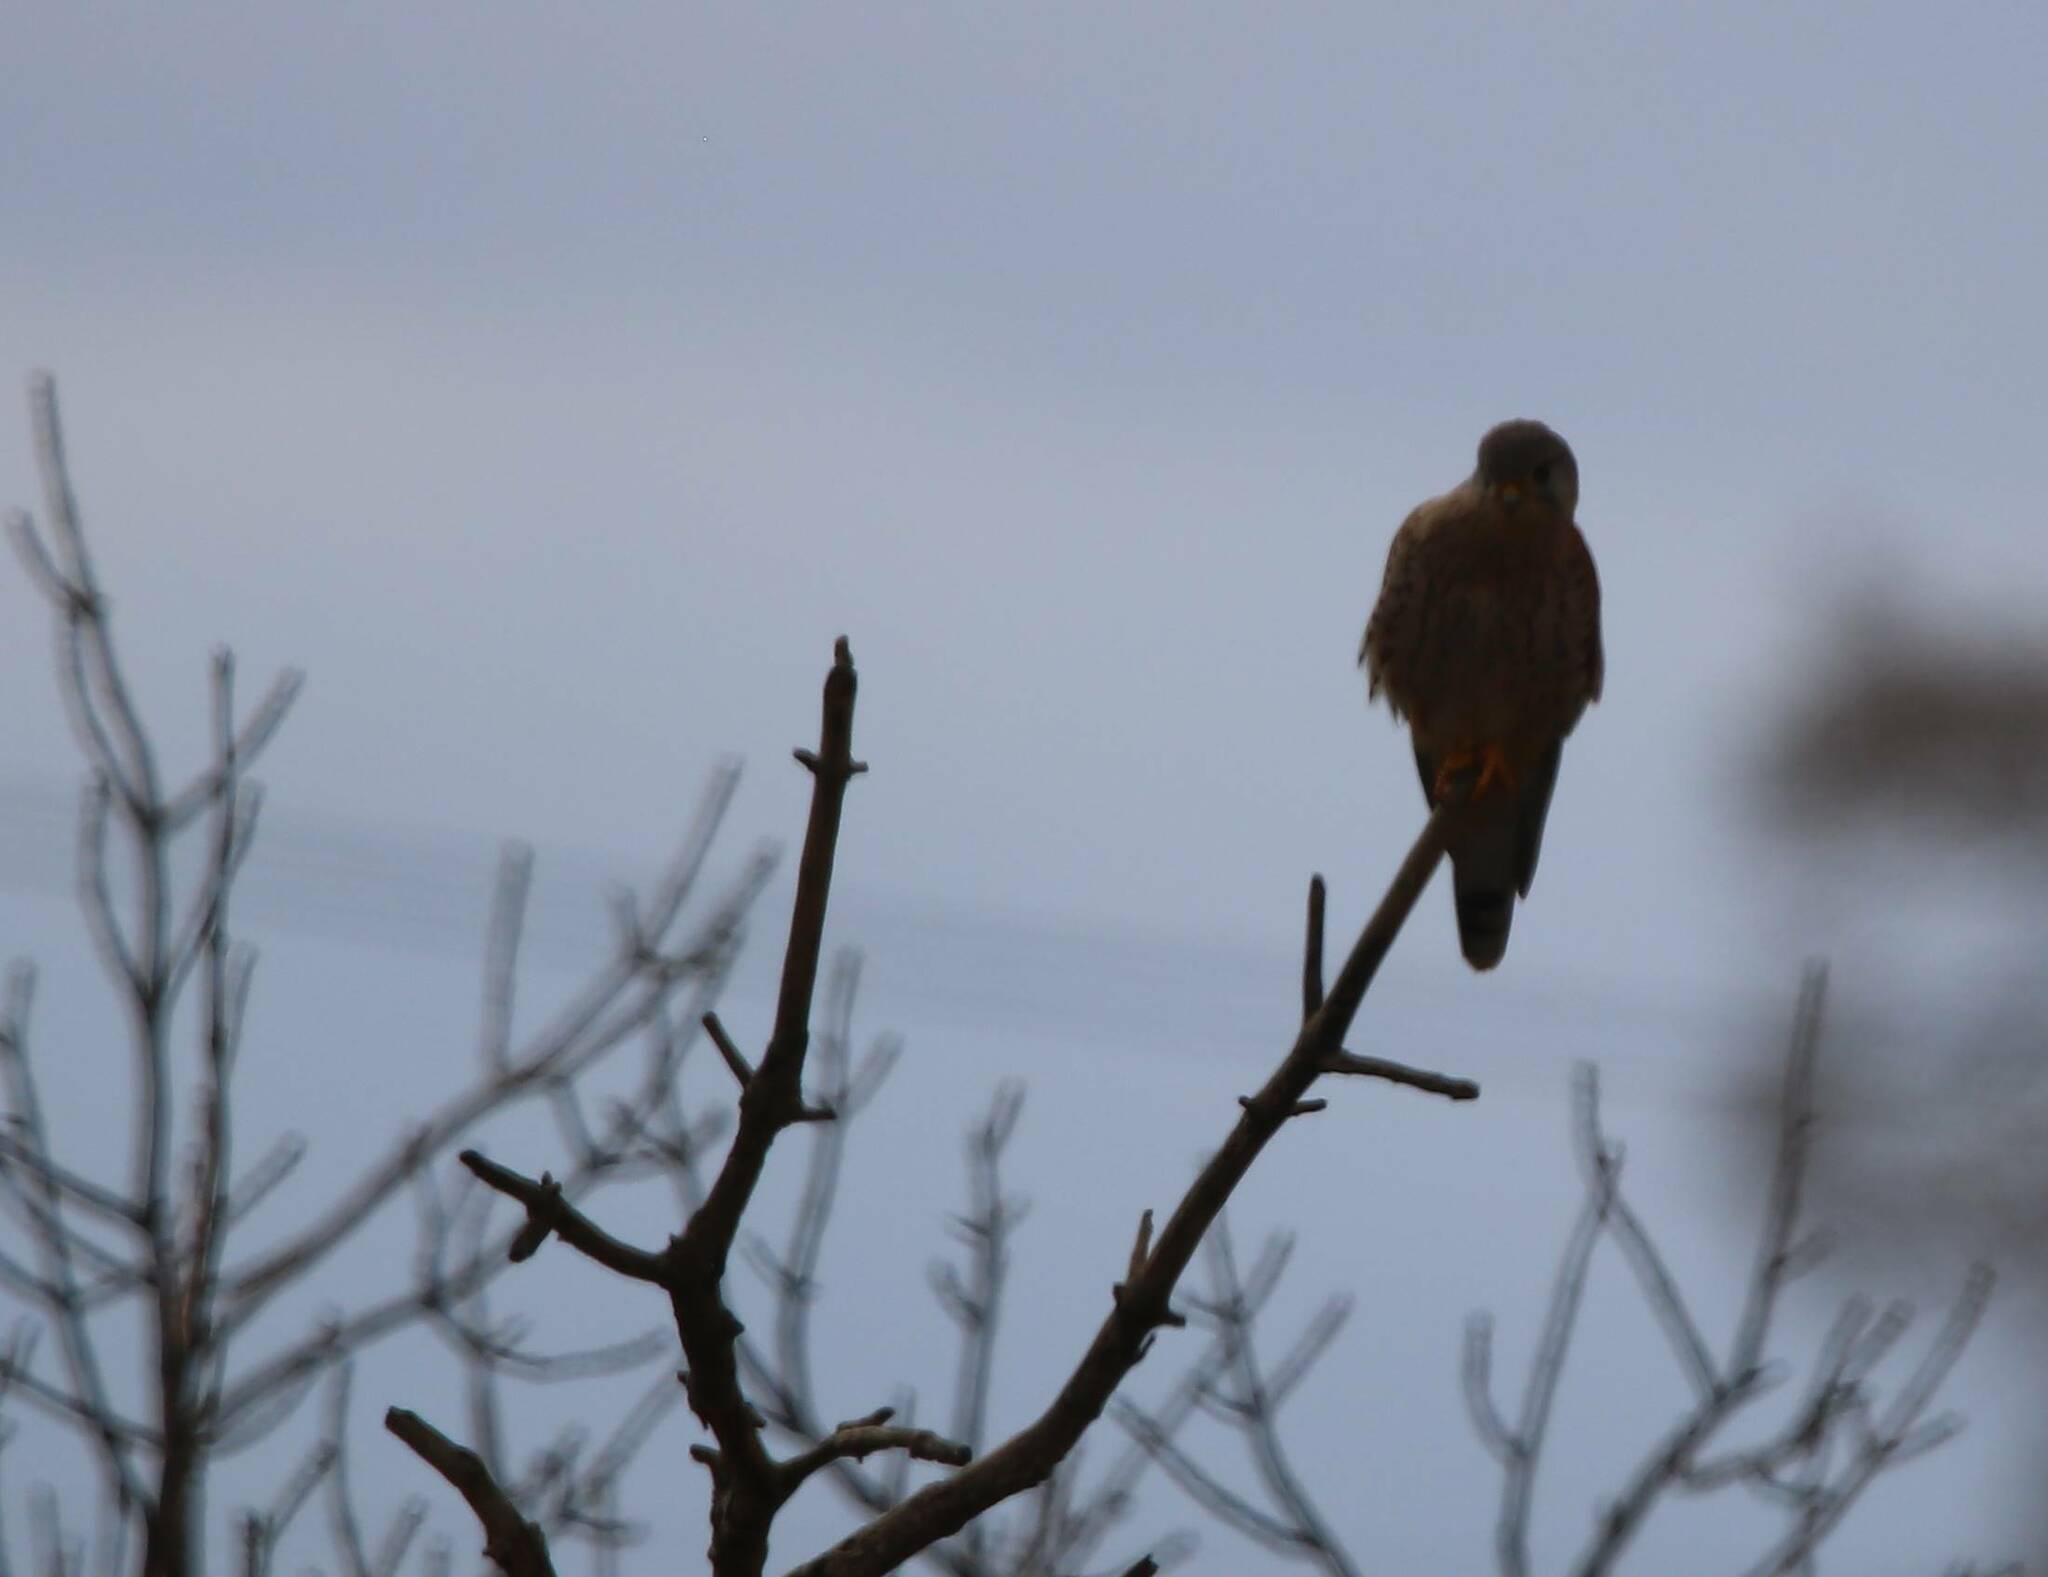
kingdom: Animalia
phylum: Chordata
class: Aves
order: Falconiformes
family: Falconidae
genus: Falco
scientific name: Falco tinnunculus
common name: Common kestrel
